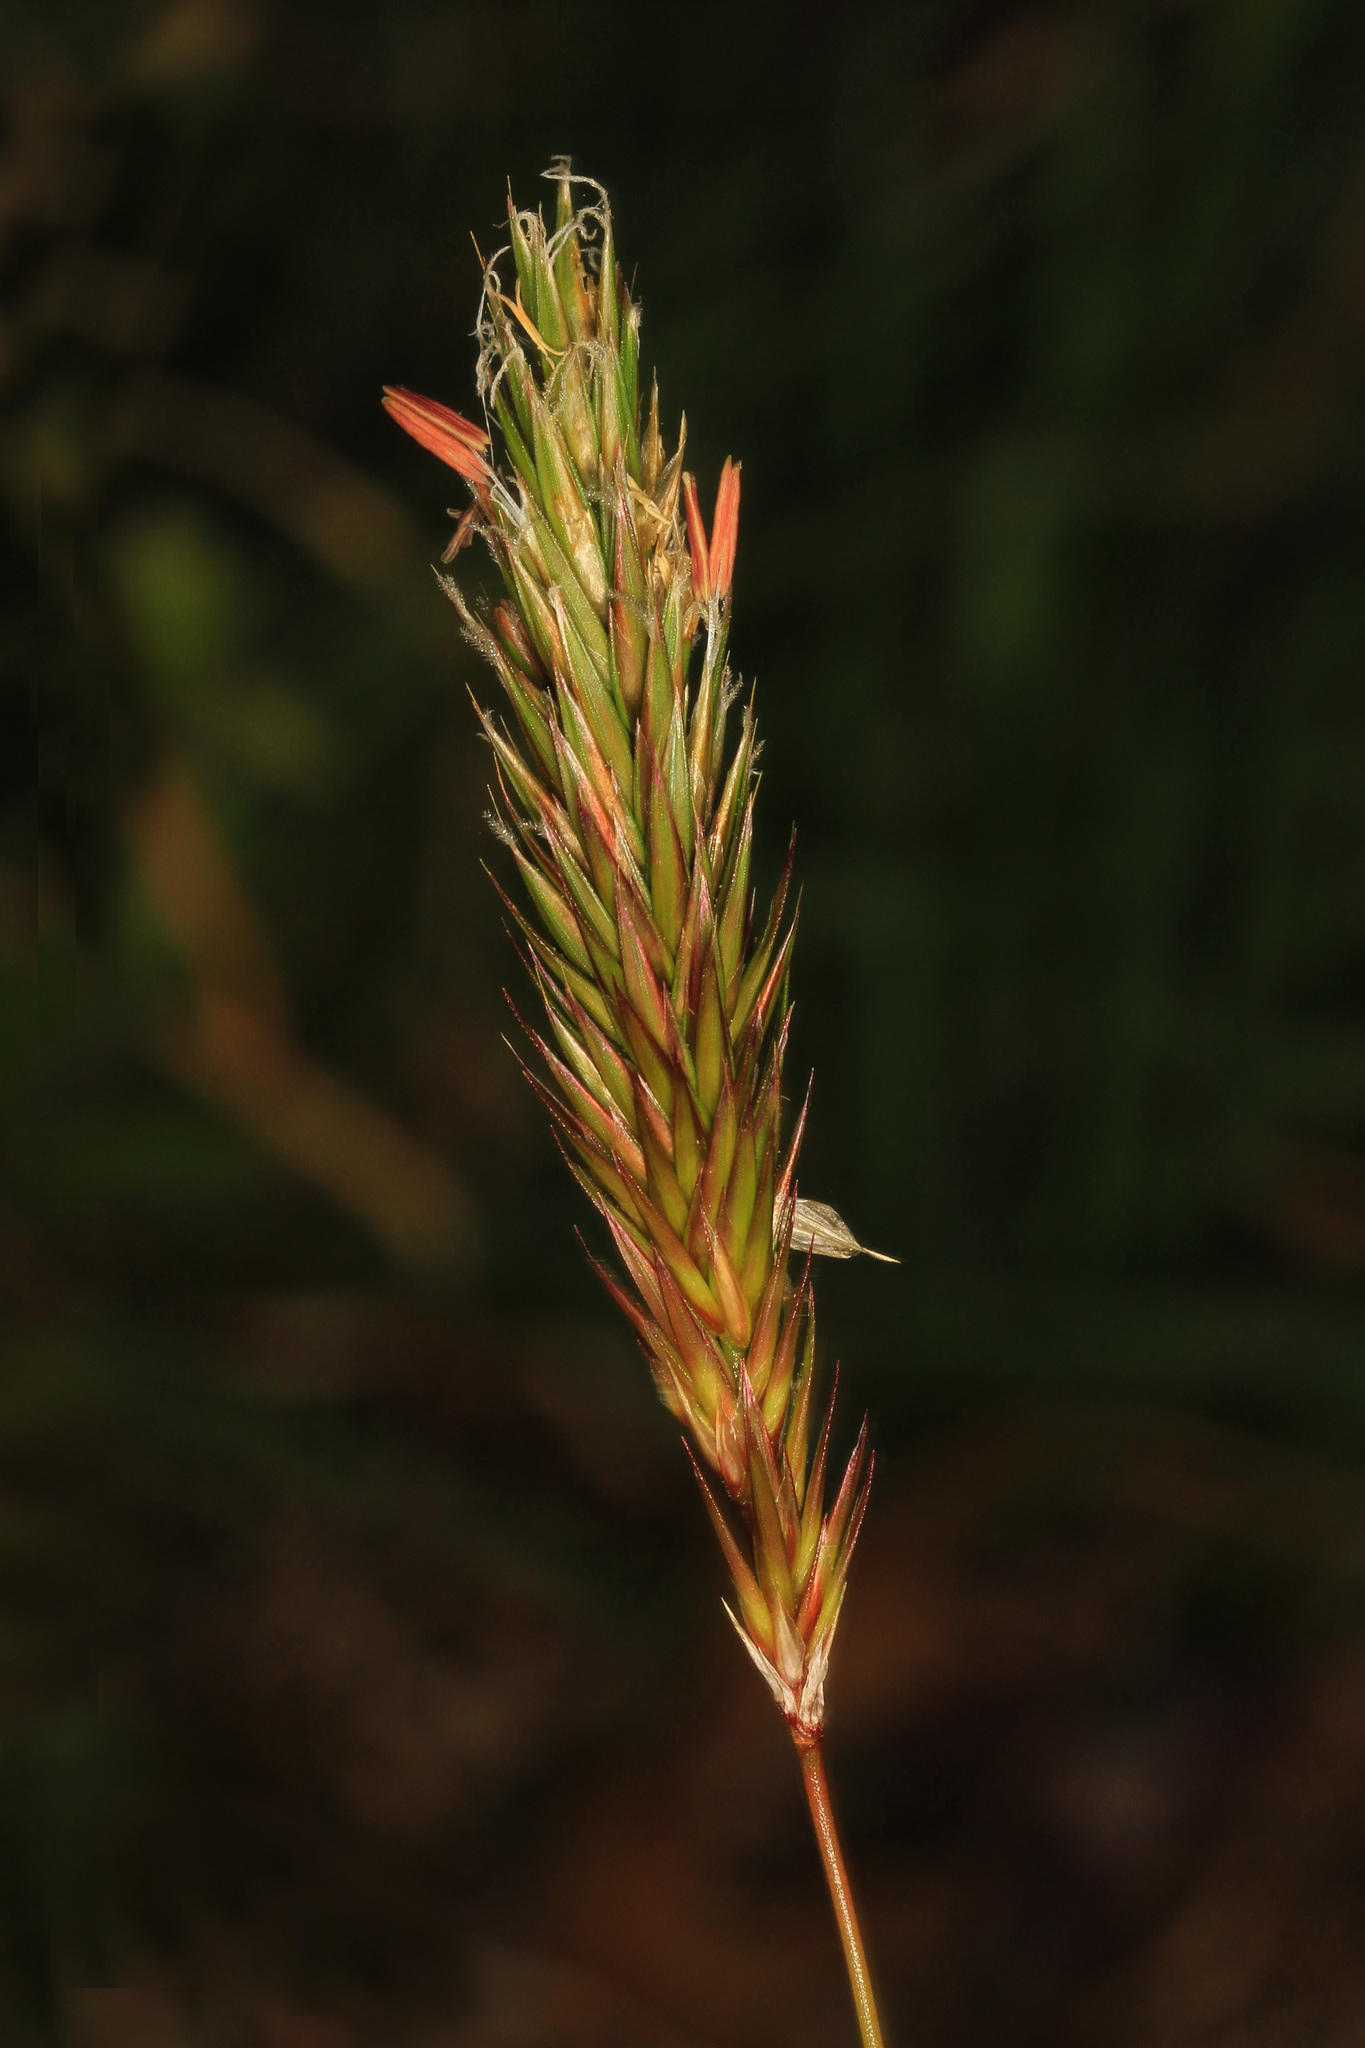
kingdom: Plantae
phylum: Tracheophyta
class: Liliopsida
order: Poales
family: Poaceae
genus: Anthoxanthum
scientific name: Anthoxanthum odoratum
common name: Sweet vernalgrass
